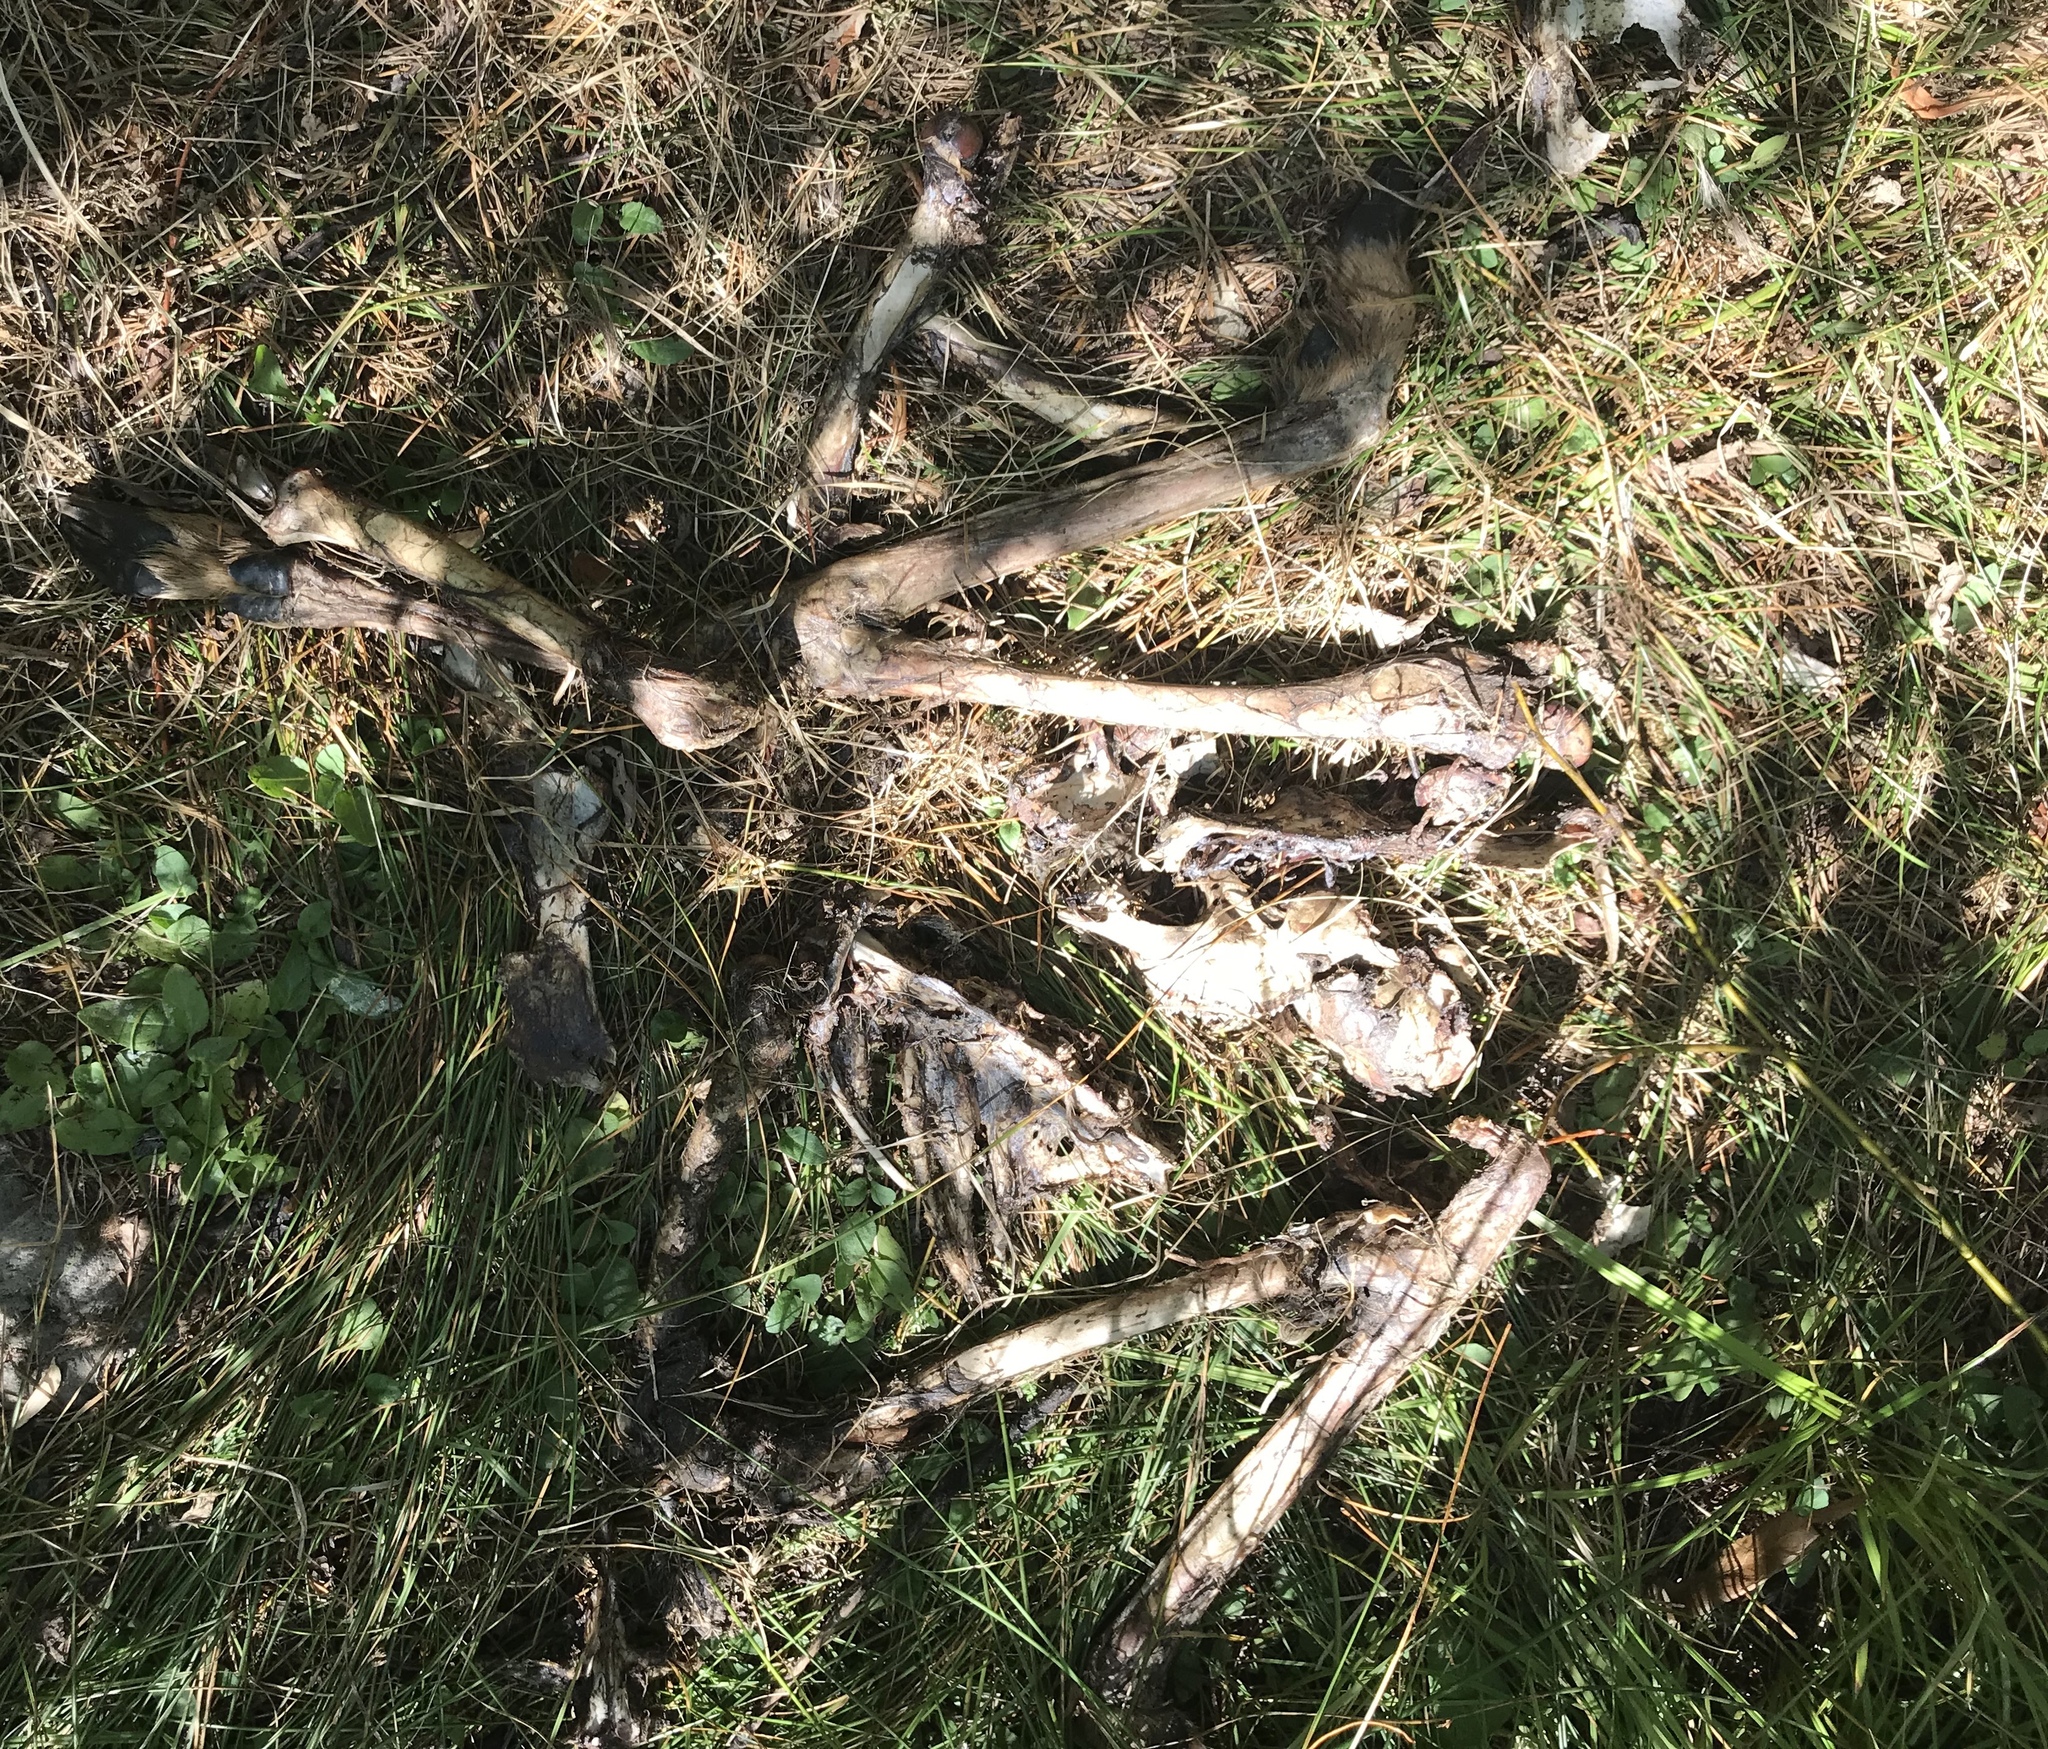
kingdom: Animalia
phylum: Chordata
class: Mammalia
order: Artiodactyla
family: Cervidae
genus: Odocoileus
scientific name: Odocoileus hemionus
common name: Mule deer
